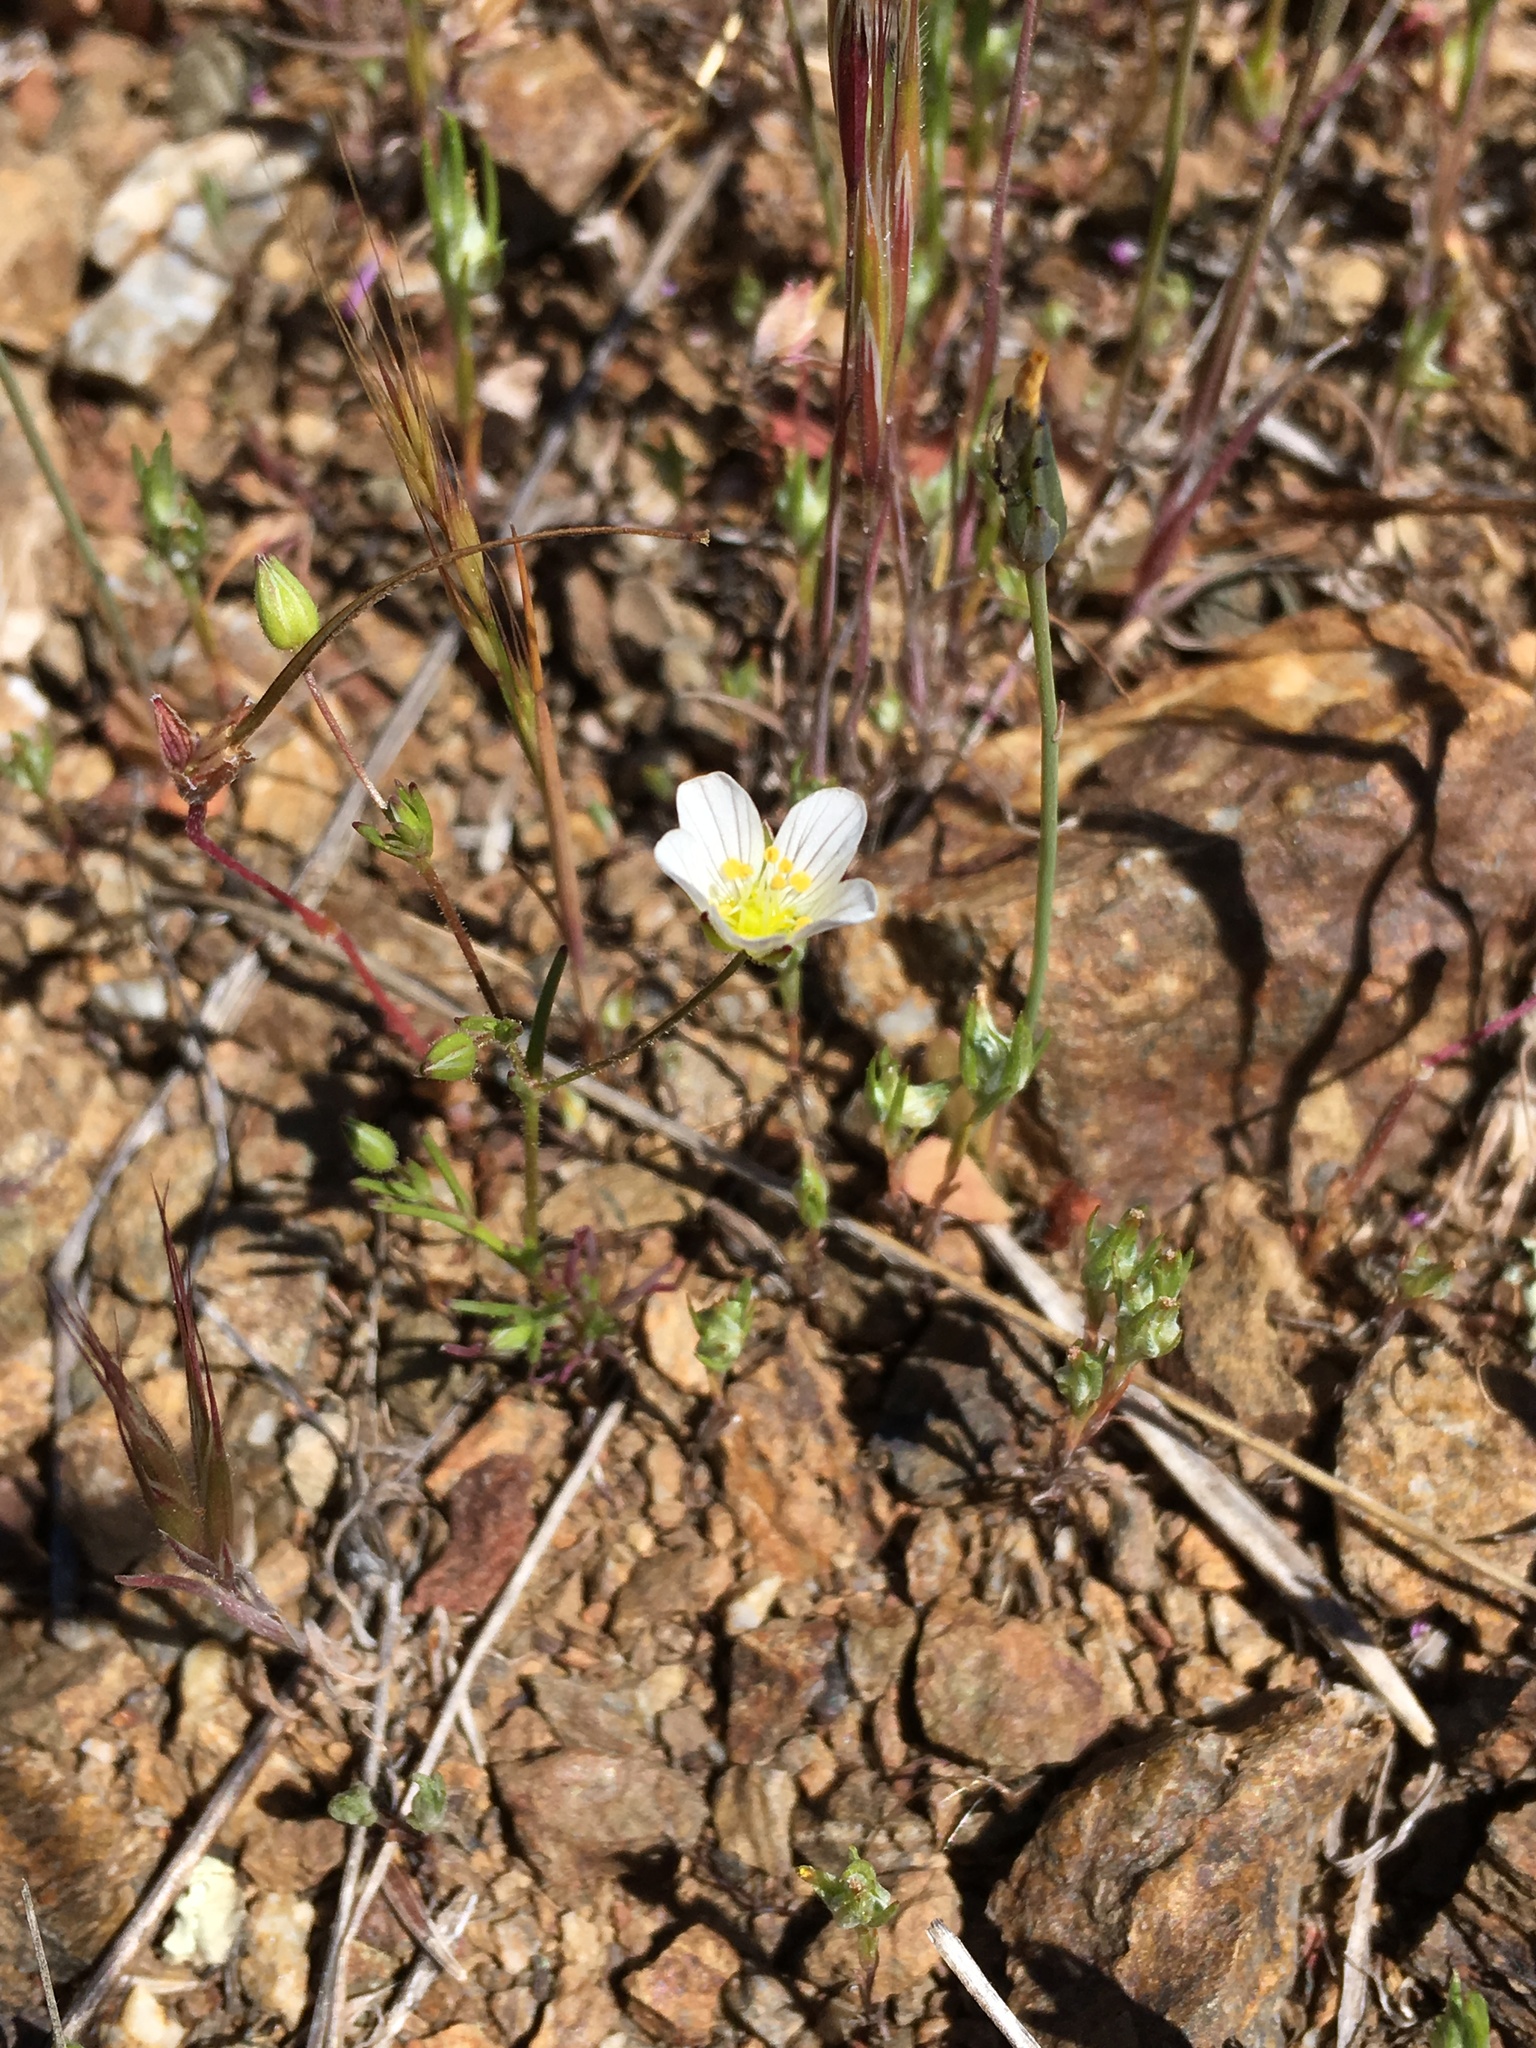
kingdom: Plantae
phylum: Tracheophyta
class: Magnoliopsida
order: Caryophyllales
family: Caryophyllaceae
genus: Sabulina
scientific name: Sabulina douglasii
